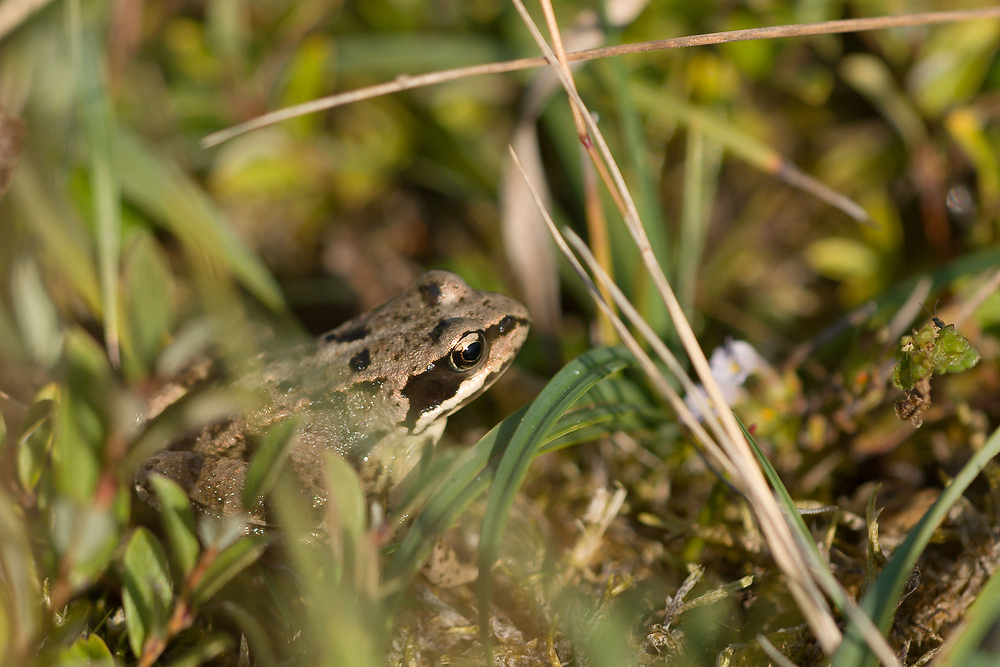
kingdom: Animalia
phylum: Chordata
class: Amphibia
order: Anura
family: Ranidae
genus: Rana
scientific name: Rana temporaria
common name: Common frog
